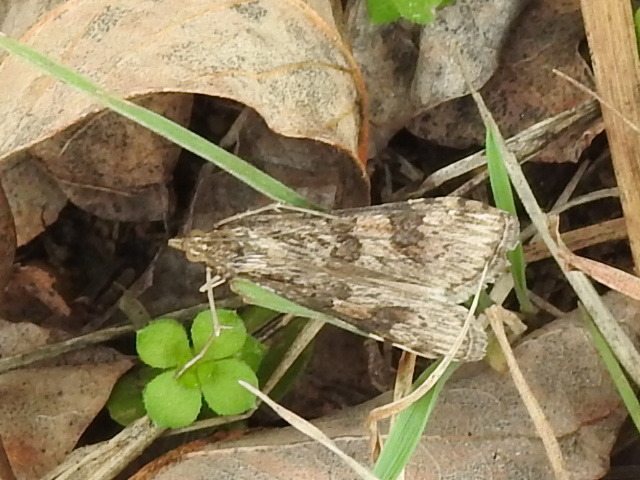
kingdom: Animalia
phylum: Arthropoda
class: Insecta
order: Lepidoptera
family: Crambidae
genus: Nomophila
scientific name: Nomophila nearctica
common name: American rush veneer
